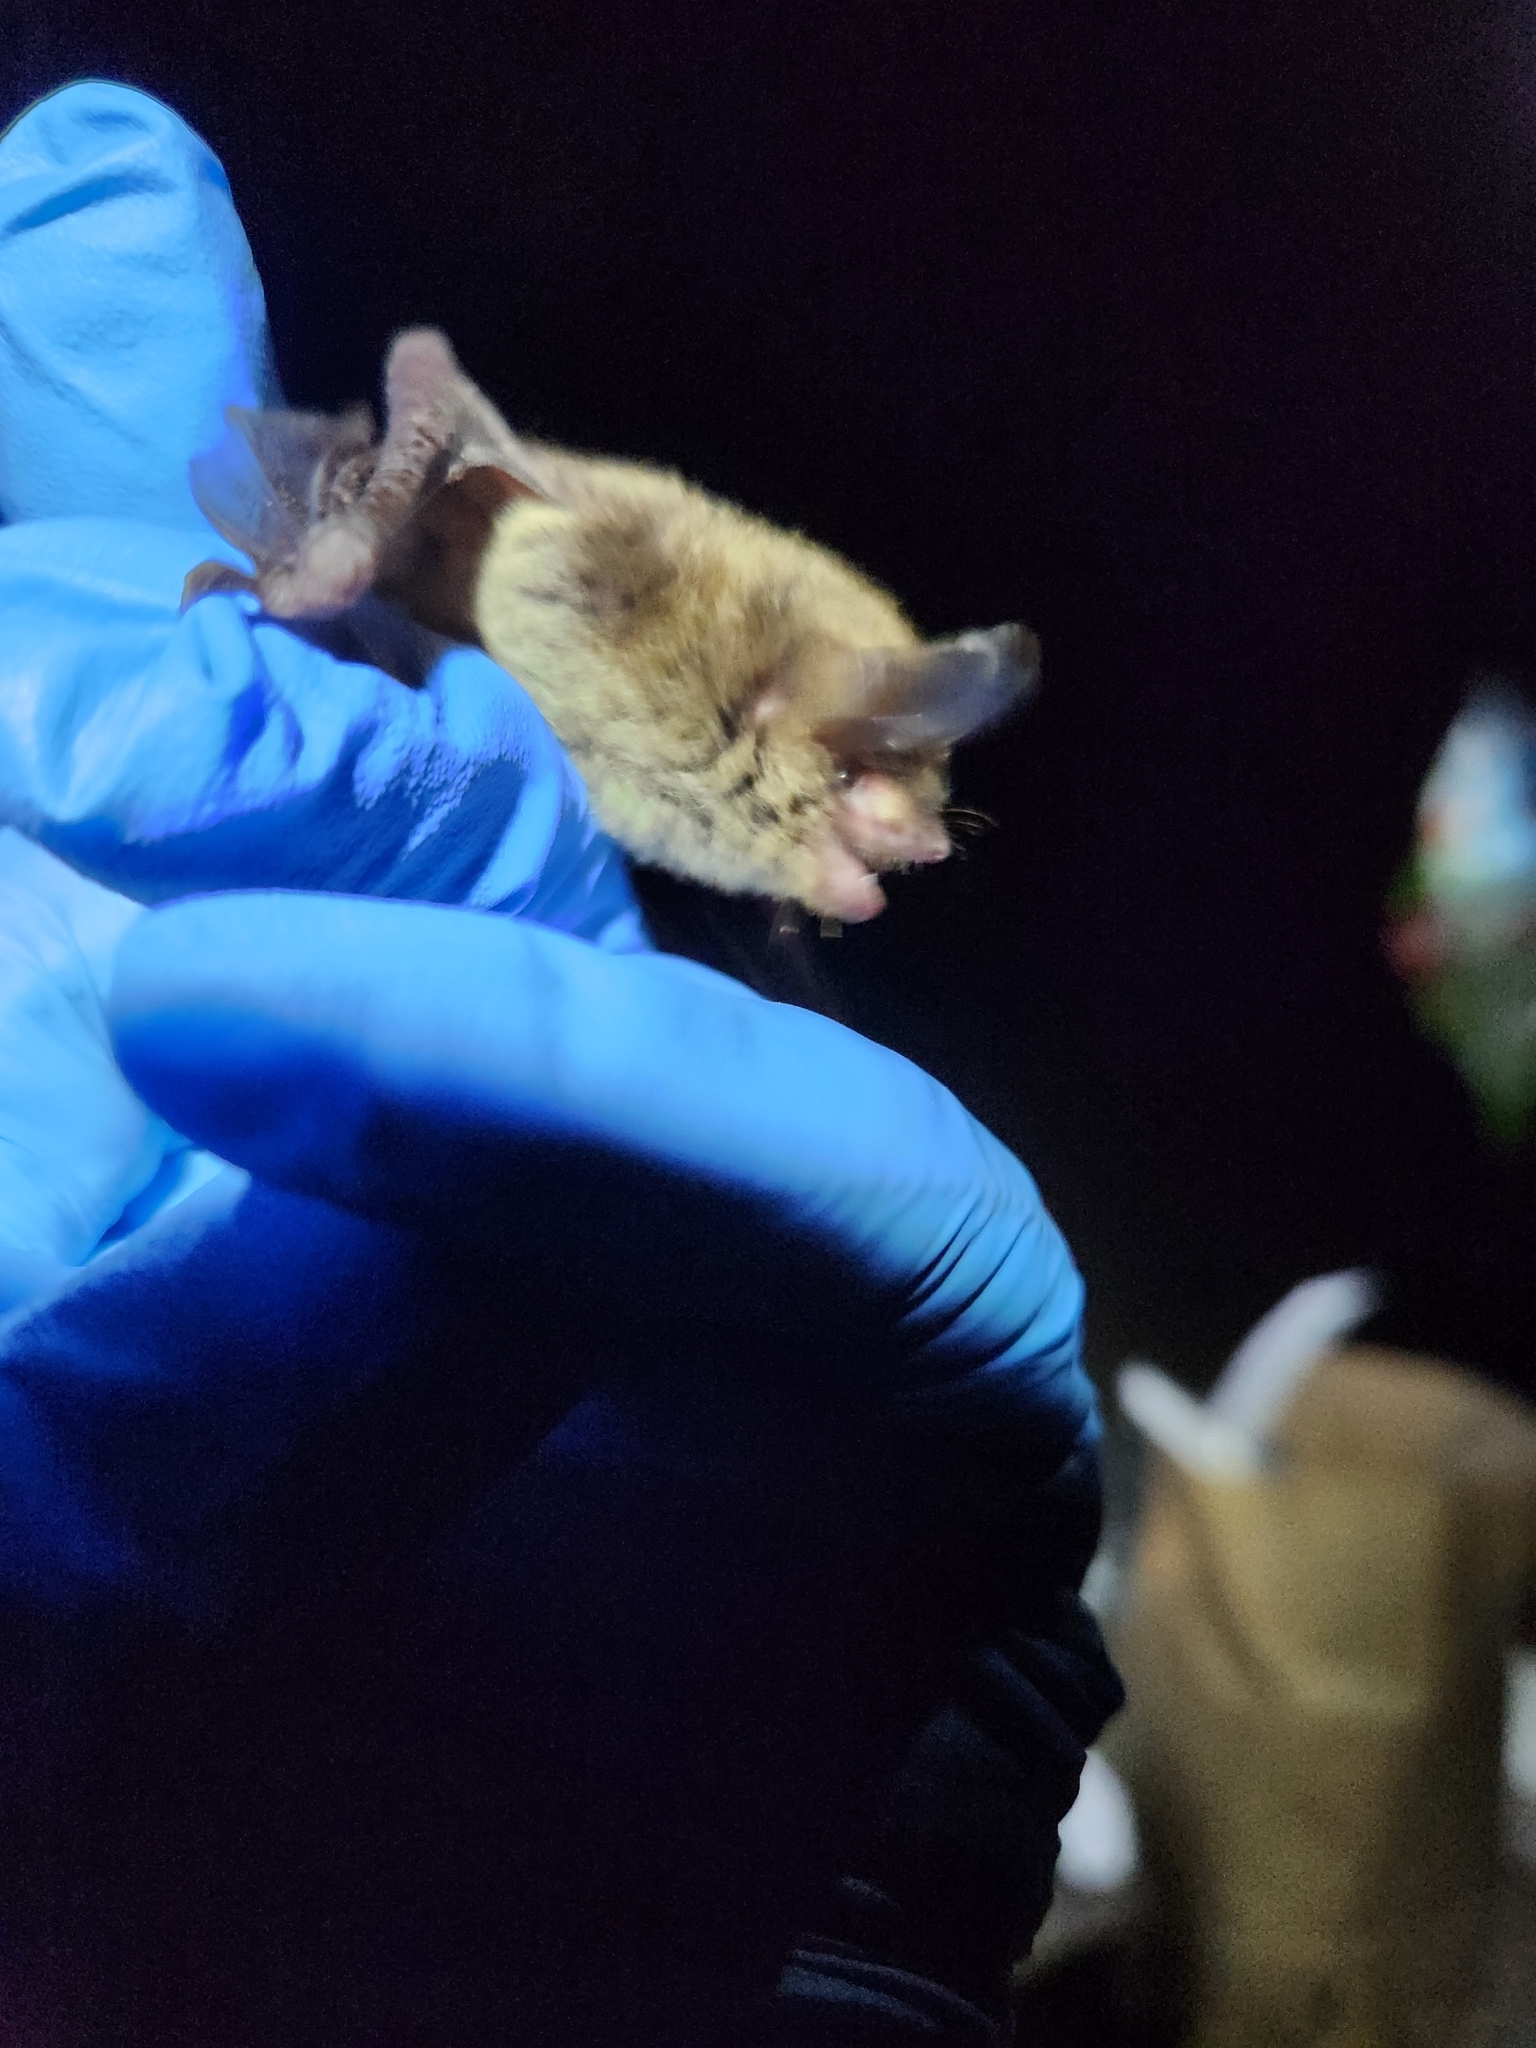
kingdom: Animalia
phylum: Chordata
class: Mammalia
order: Chiroptera
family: Vespertilionidae
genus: Myotis
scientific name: Myotis septentrionalis
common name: Northern myotis
